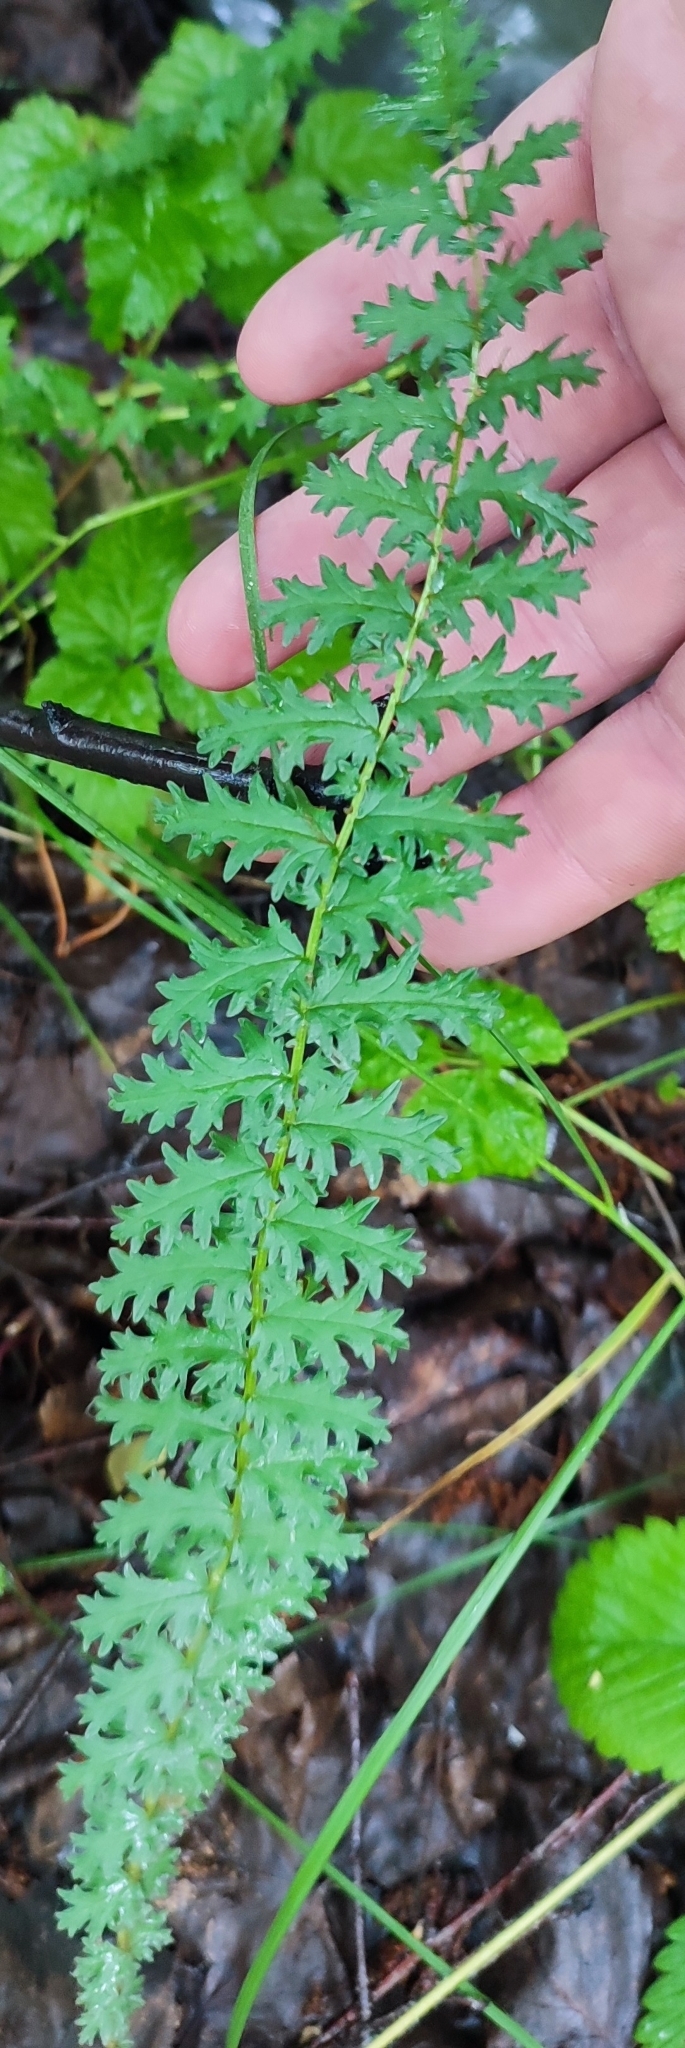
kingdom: Plantae
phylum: Tracheophyta
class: Magnoliopsida
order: Rosales
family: Rosaceae
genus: Filipendula
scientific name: Filipendula vulgaris
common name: Dropwort
